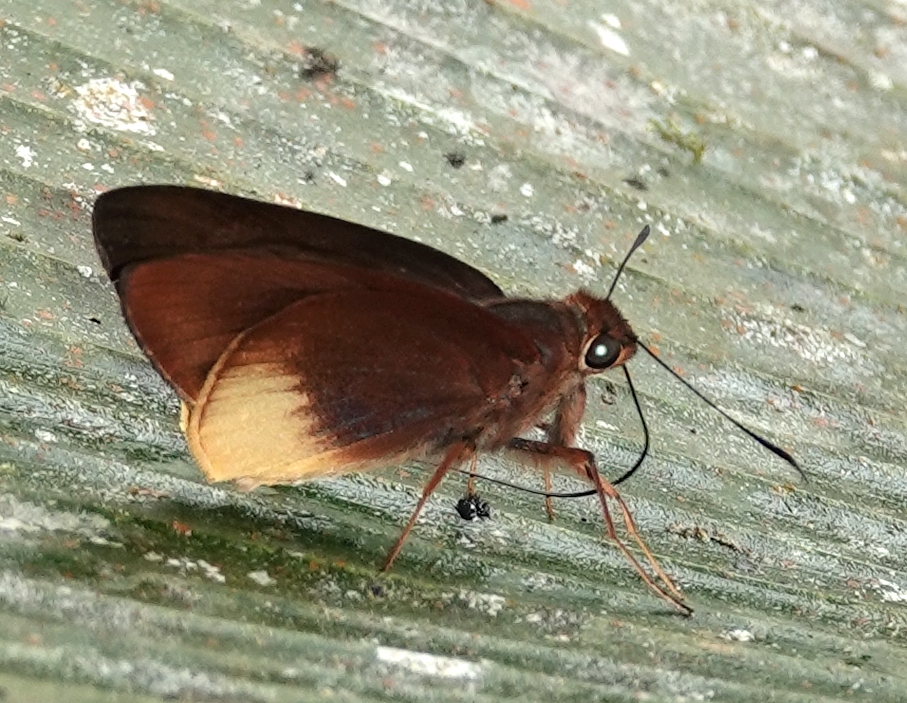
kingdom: Animalia
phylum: Arthropoda
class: Insecta
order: Lepidoptera
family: Hesperiidae
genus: Tromba
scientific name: Tromba xanthura
